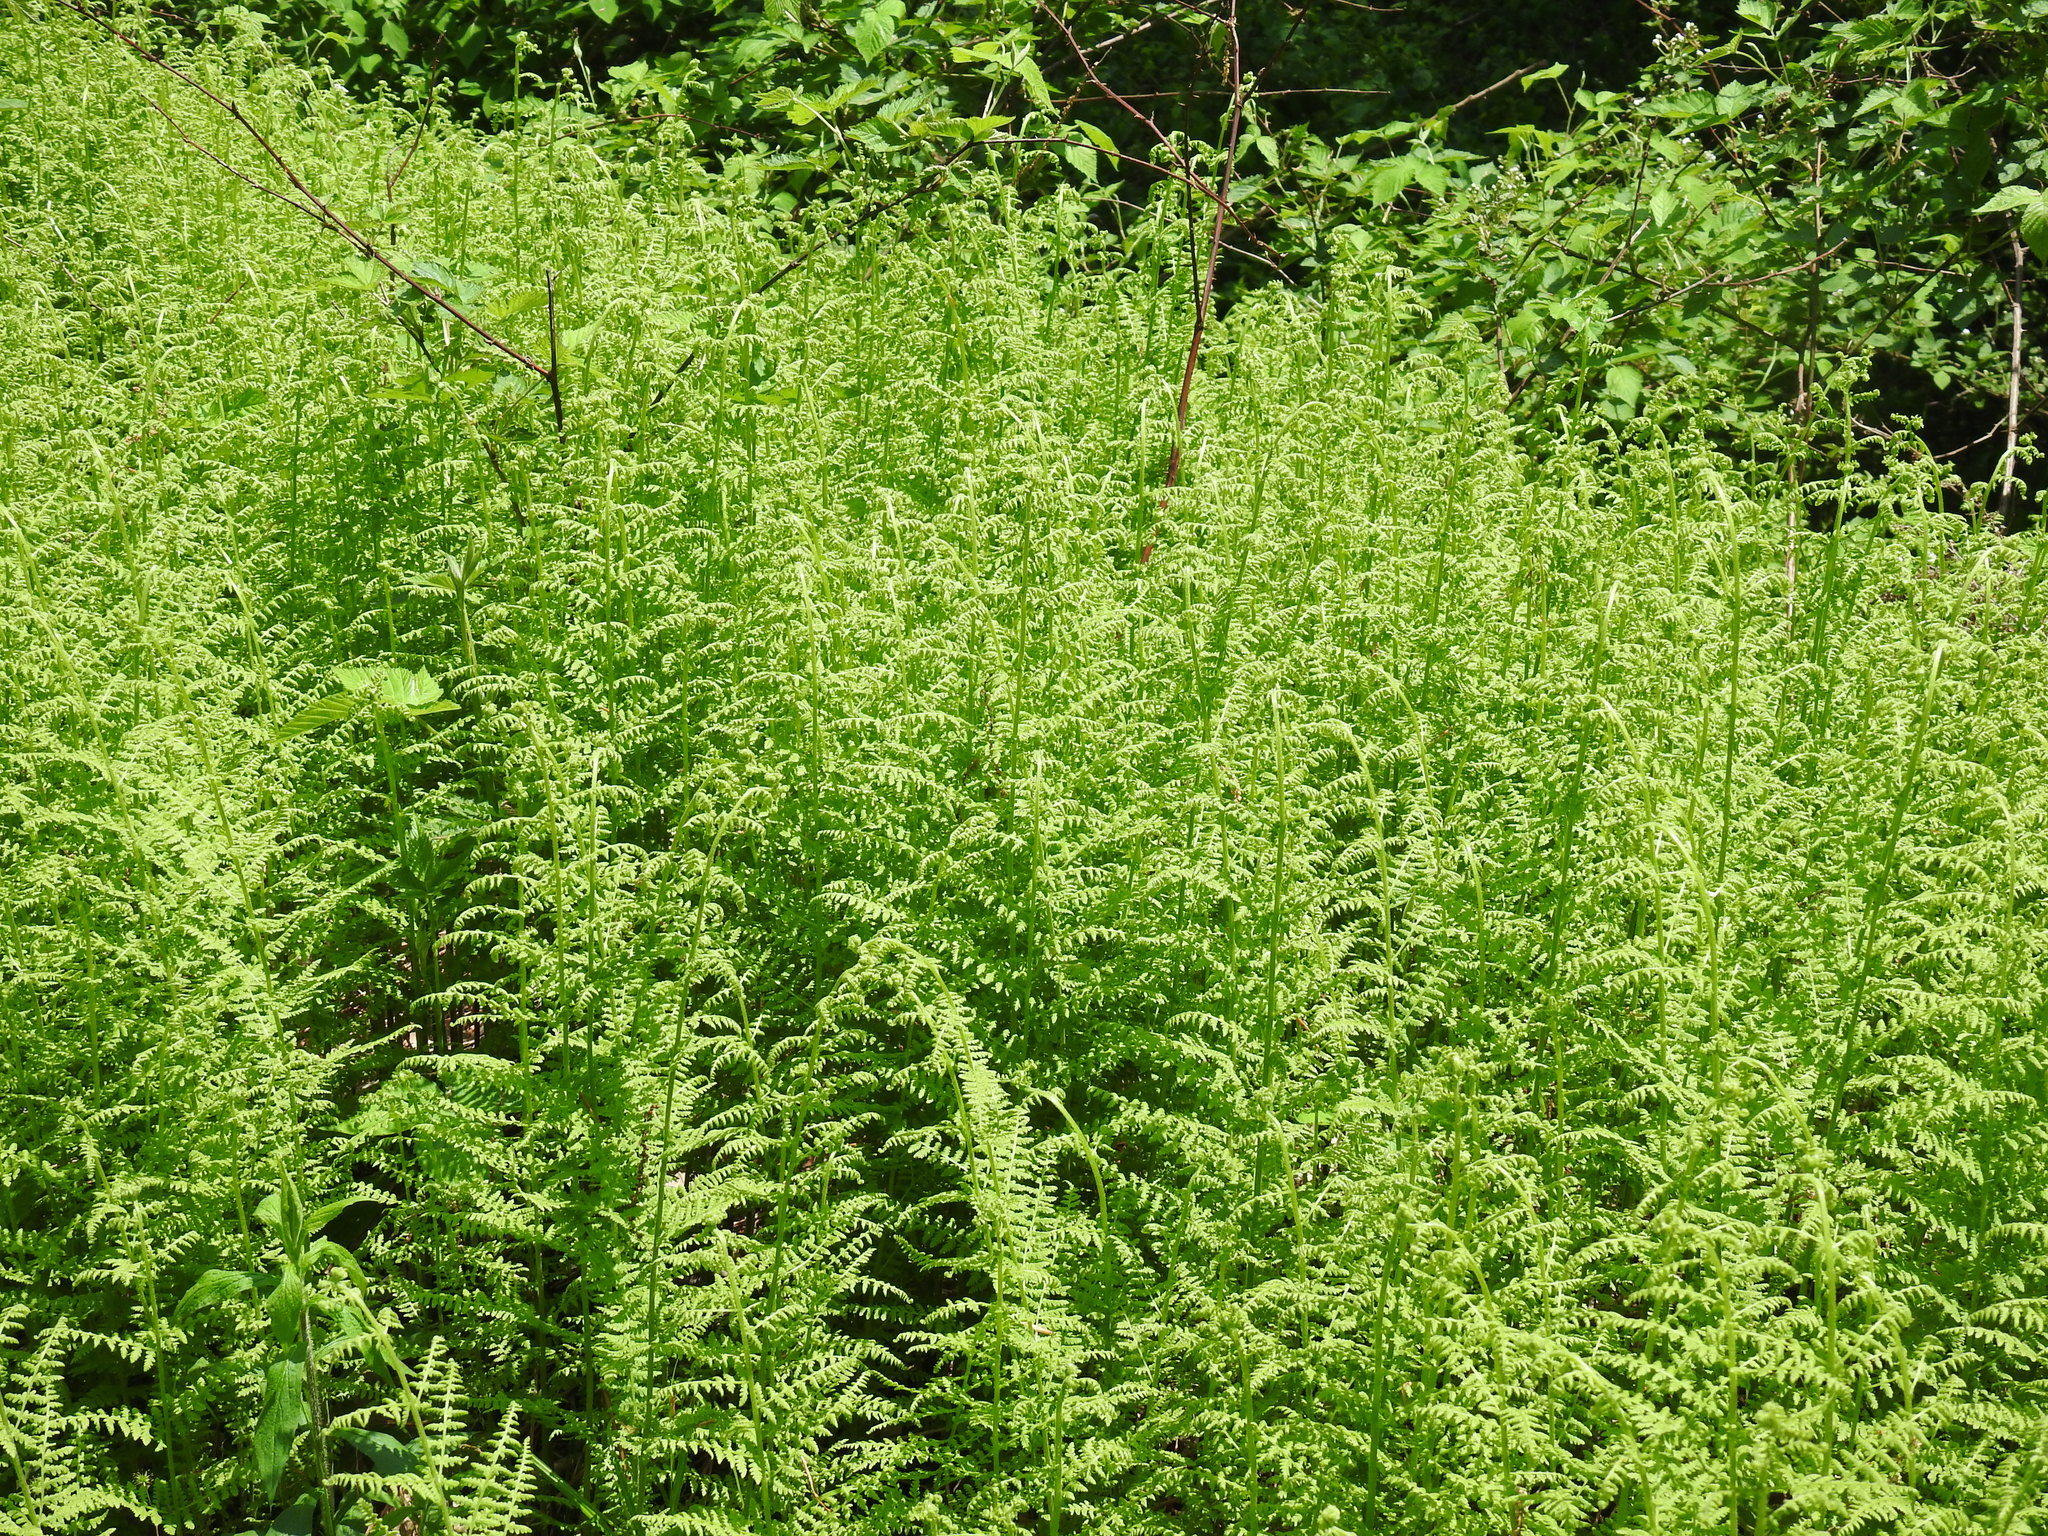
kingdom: Plantae
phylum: Tracheophyta
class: Polypodiopsida
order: Polypodiales
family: Dennstaedtiaceae
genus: Sitobolium
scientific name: Sitobolium punctilobum
